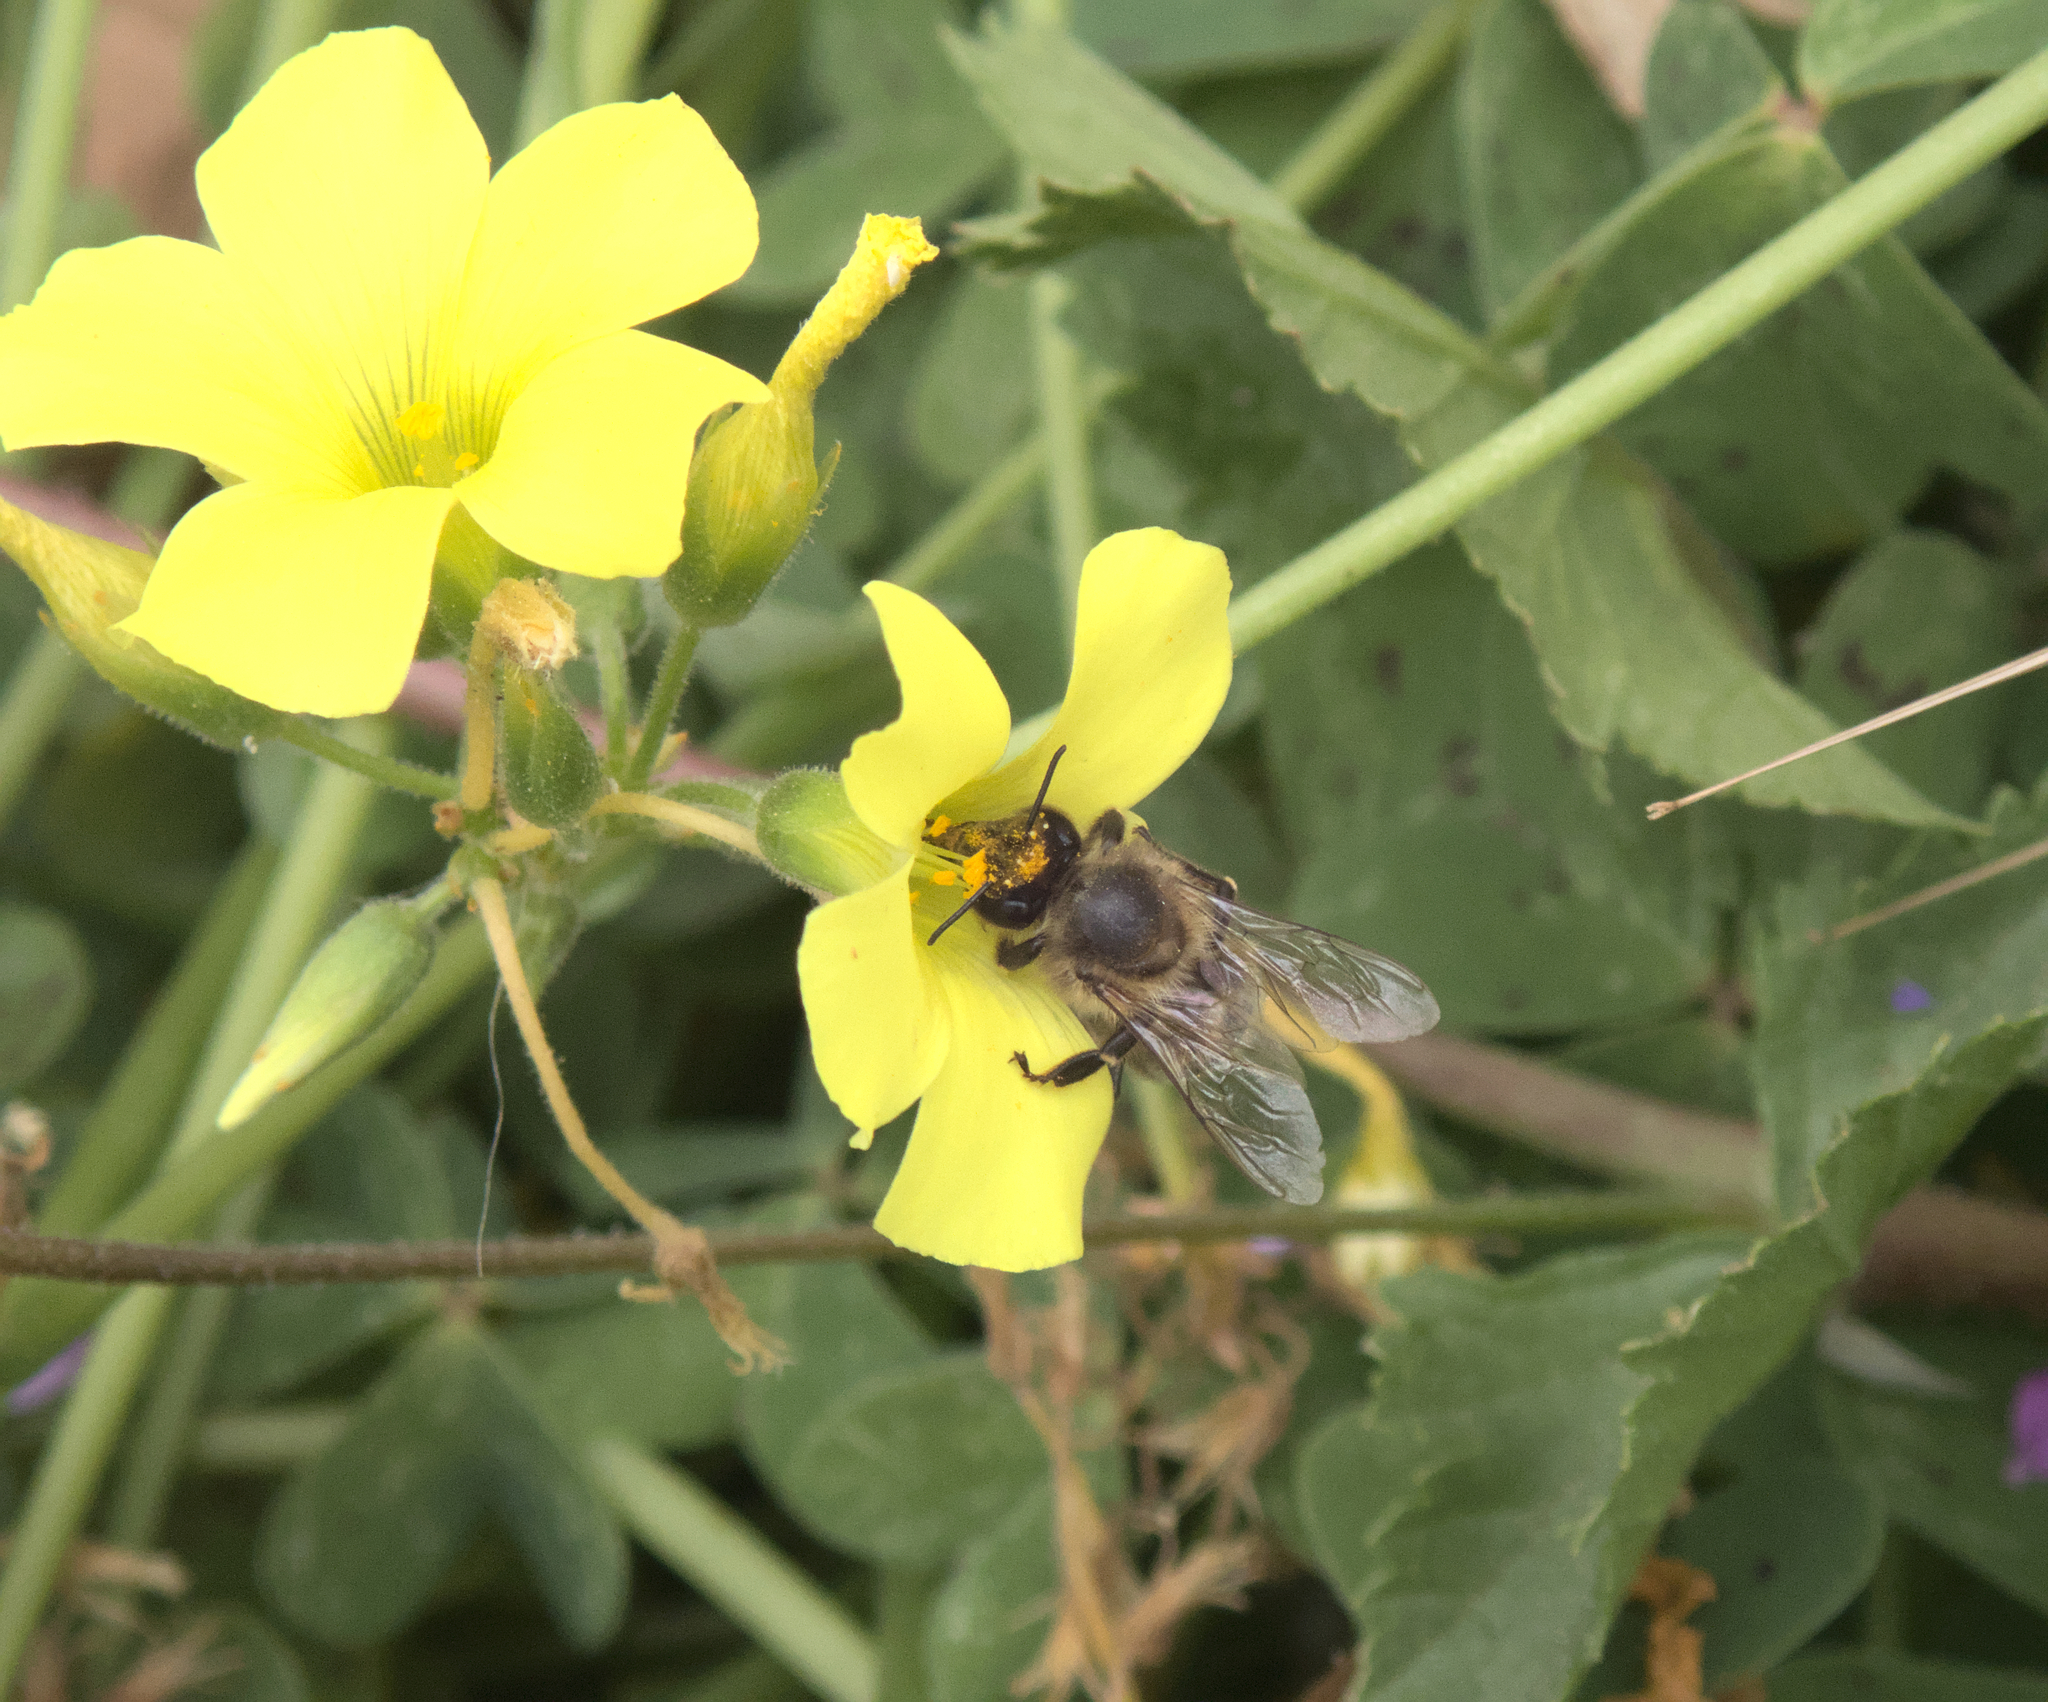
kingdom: Animalia
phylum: Arthropoda
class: Insecta
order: Hymenoptera
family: Apidae
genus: Apis
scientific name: Apis mellifera
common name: Honey bee
